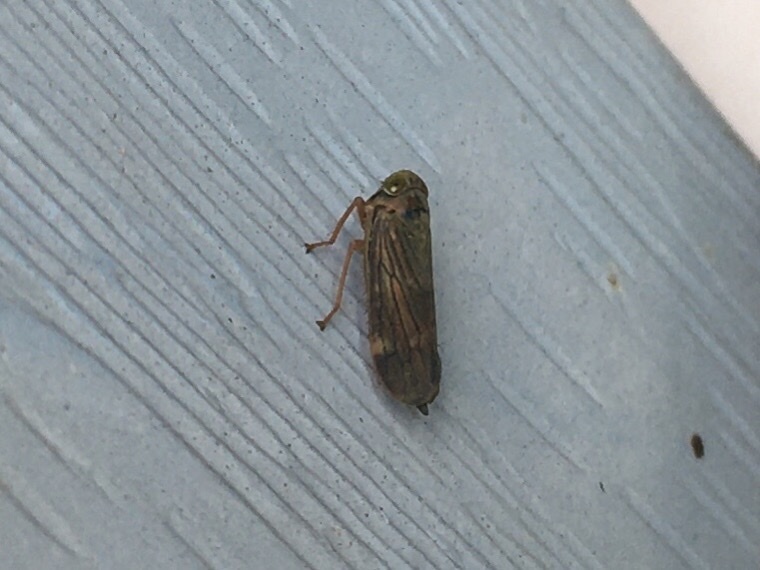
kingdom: Animalia
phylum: Arthropoda
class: Insecta
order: Hemiptera
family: Cicadellidae
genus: Jikradia
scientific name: Jikradia olitoria
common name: Coppery leafhopper
